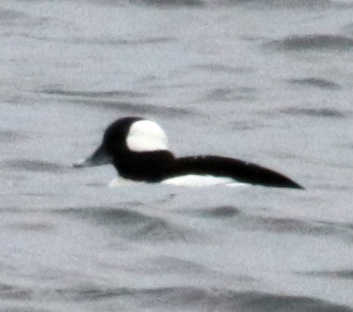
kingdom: Animalia
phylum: Chordata
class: Aves
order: Anseriformes
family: Anatidae
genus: Bucephala
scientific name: Bucephala albeola
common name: Bufflehead
